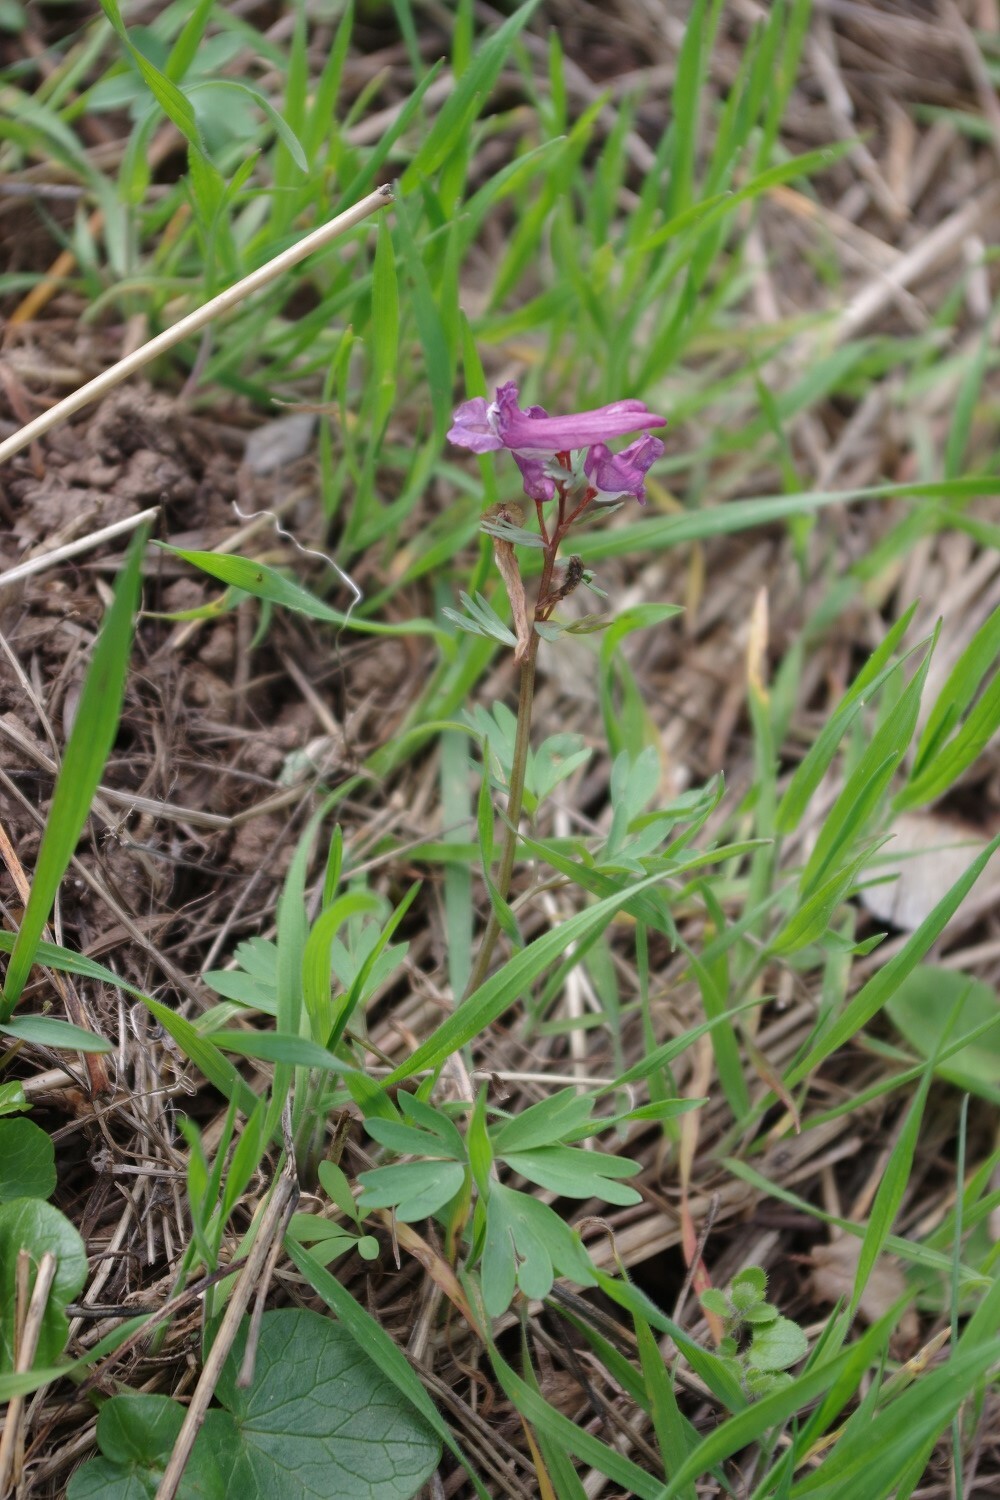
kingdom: Plantae
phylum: Tracheophyta
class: Magnoliopsida
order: Ranunculales
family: Papaveraceae
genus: Corydalis
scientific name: Corydalis solida
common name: Bird-in-a-bush
